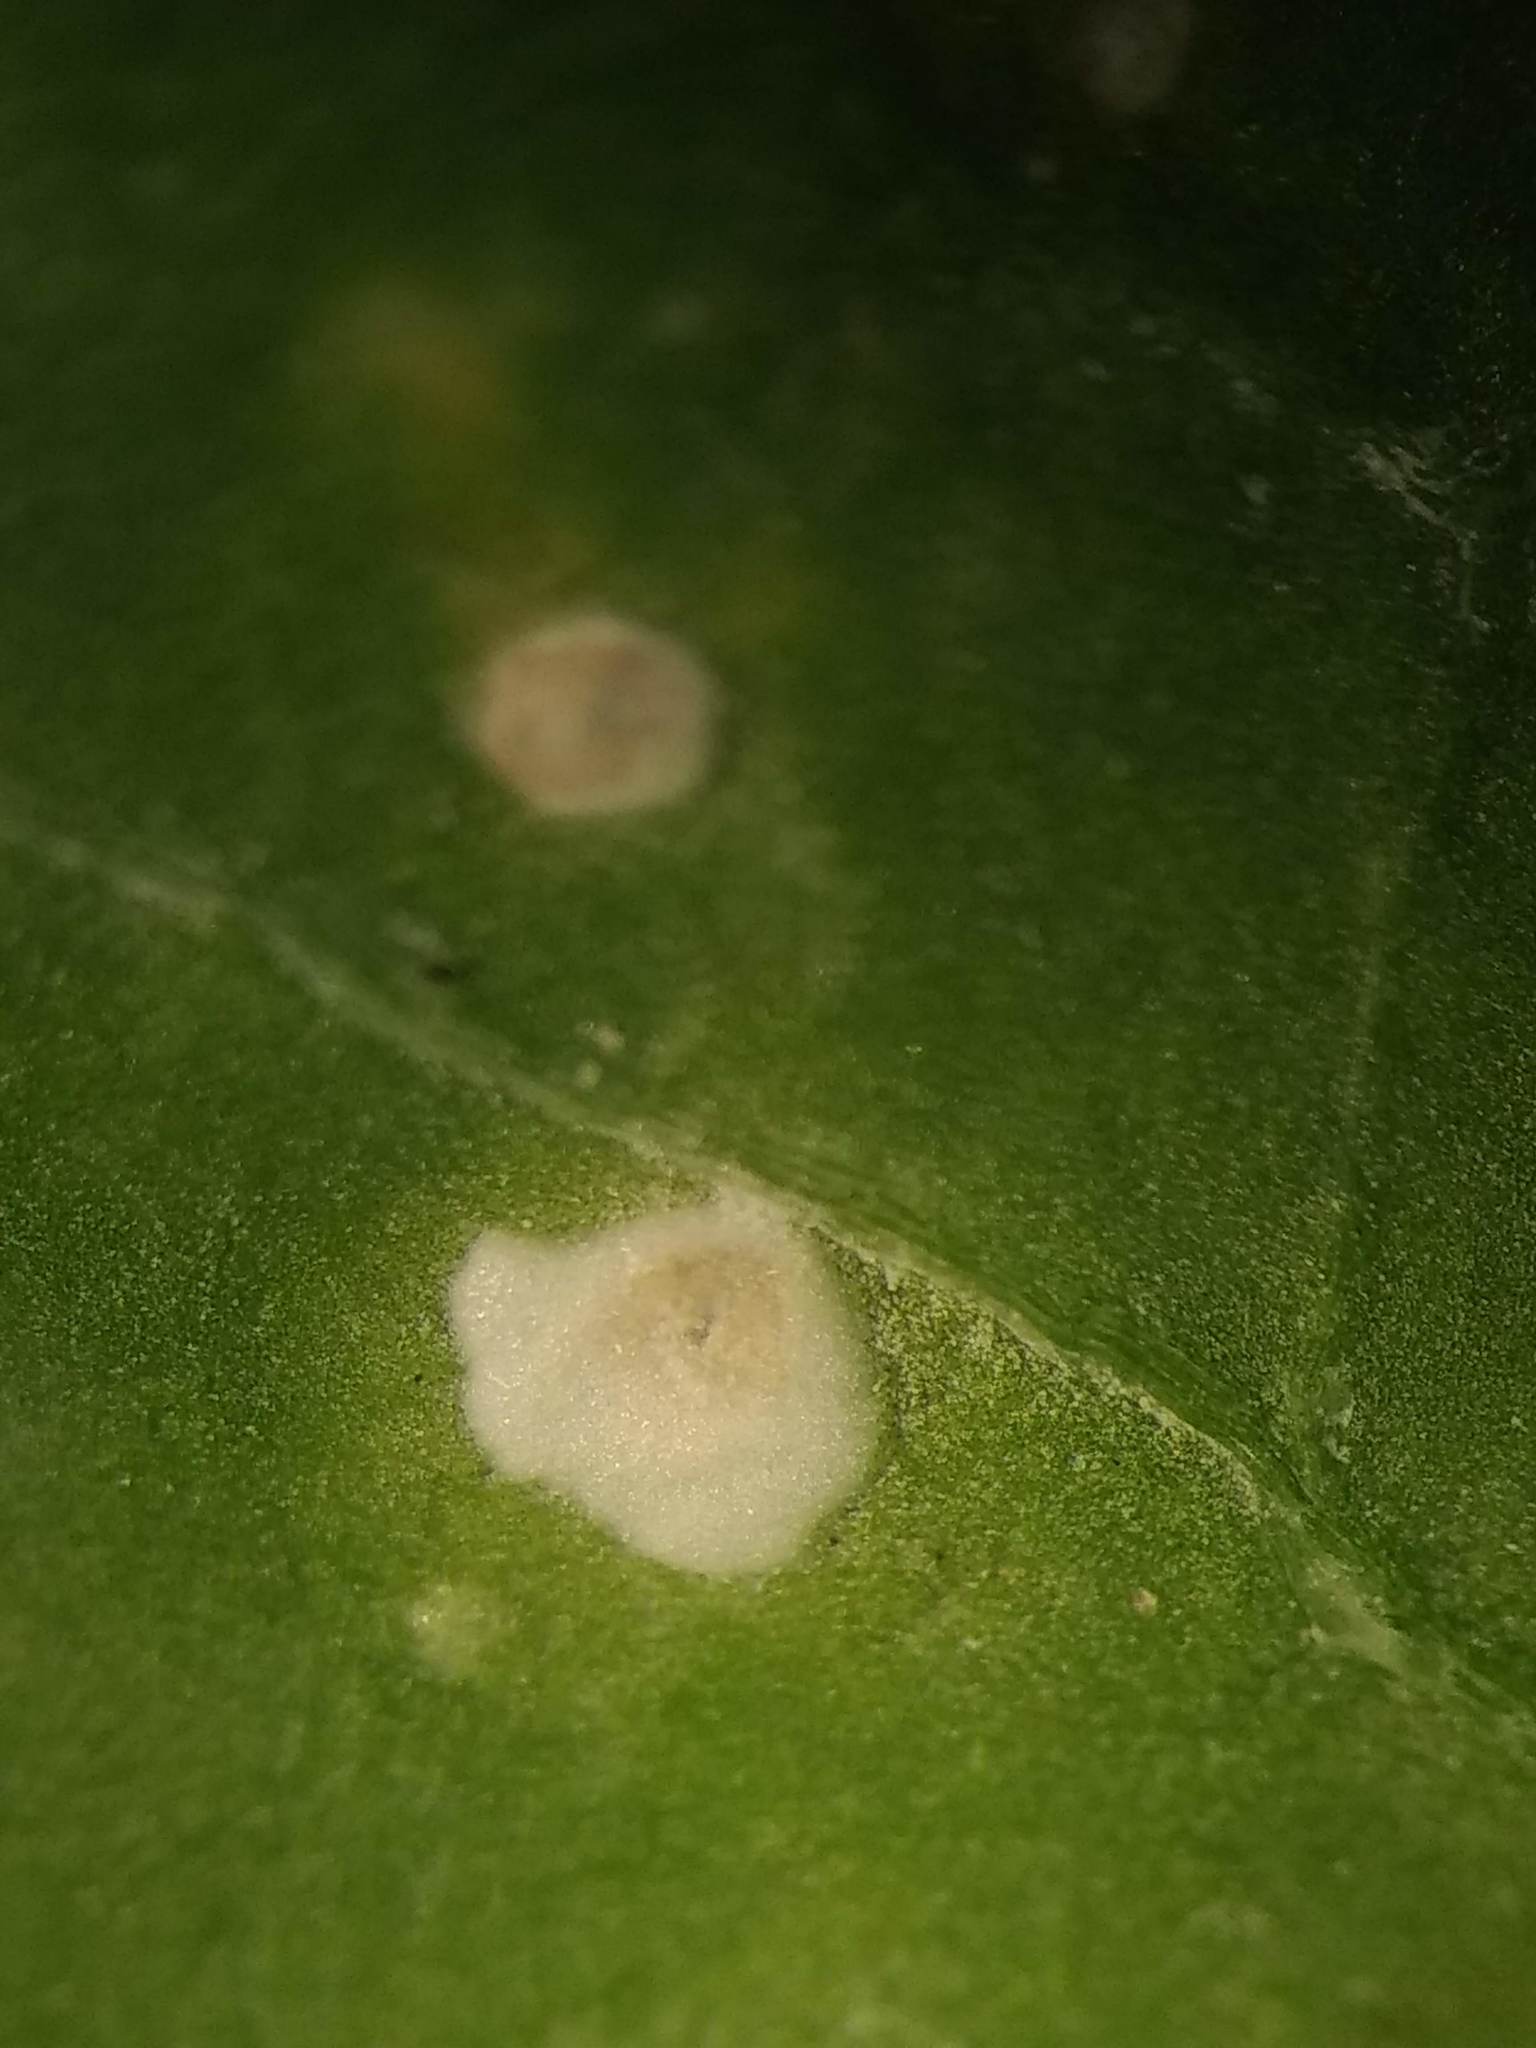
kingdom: Chromista
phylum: Oomycota
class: Peronosporea
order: Albuginales
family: Albuginaceae
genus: Albugo
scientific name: Albugo candida
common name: Crucifer white blister
